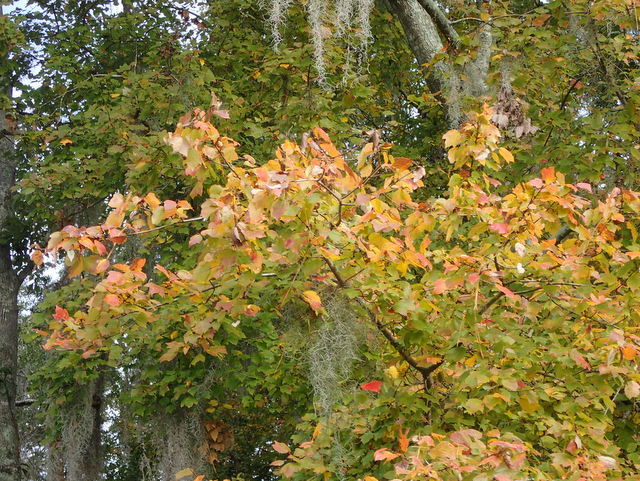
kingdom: Plantae
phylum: Tracheophyta
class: Magnoliopsida
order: Sapindales
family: Sapindaceae
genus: Acer
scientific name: Acer rubrum
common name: Red maple
